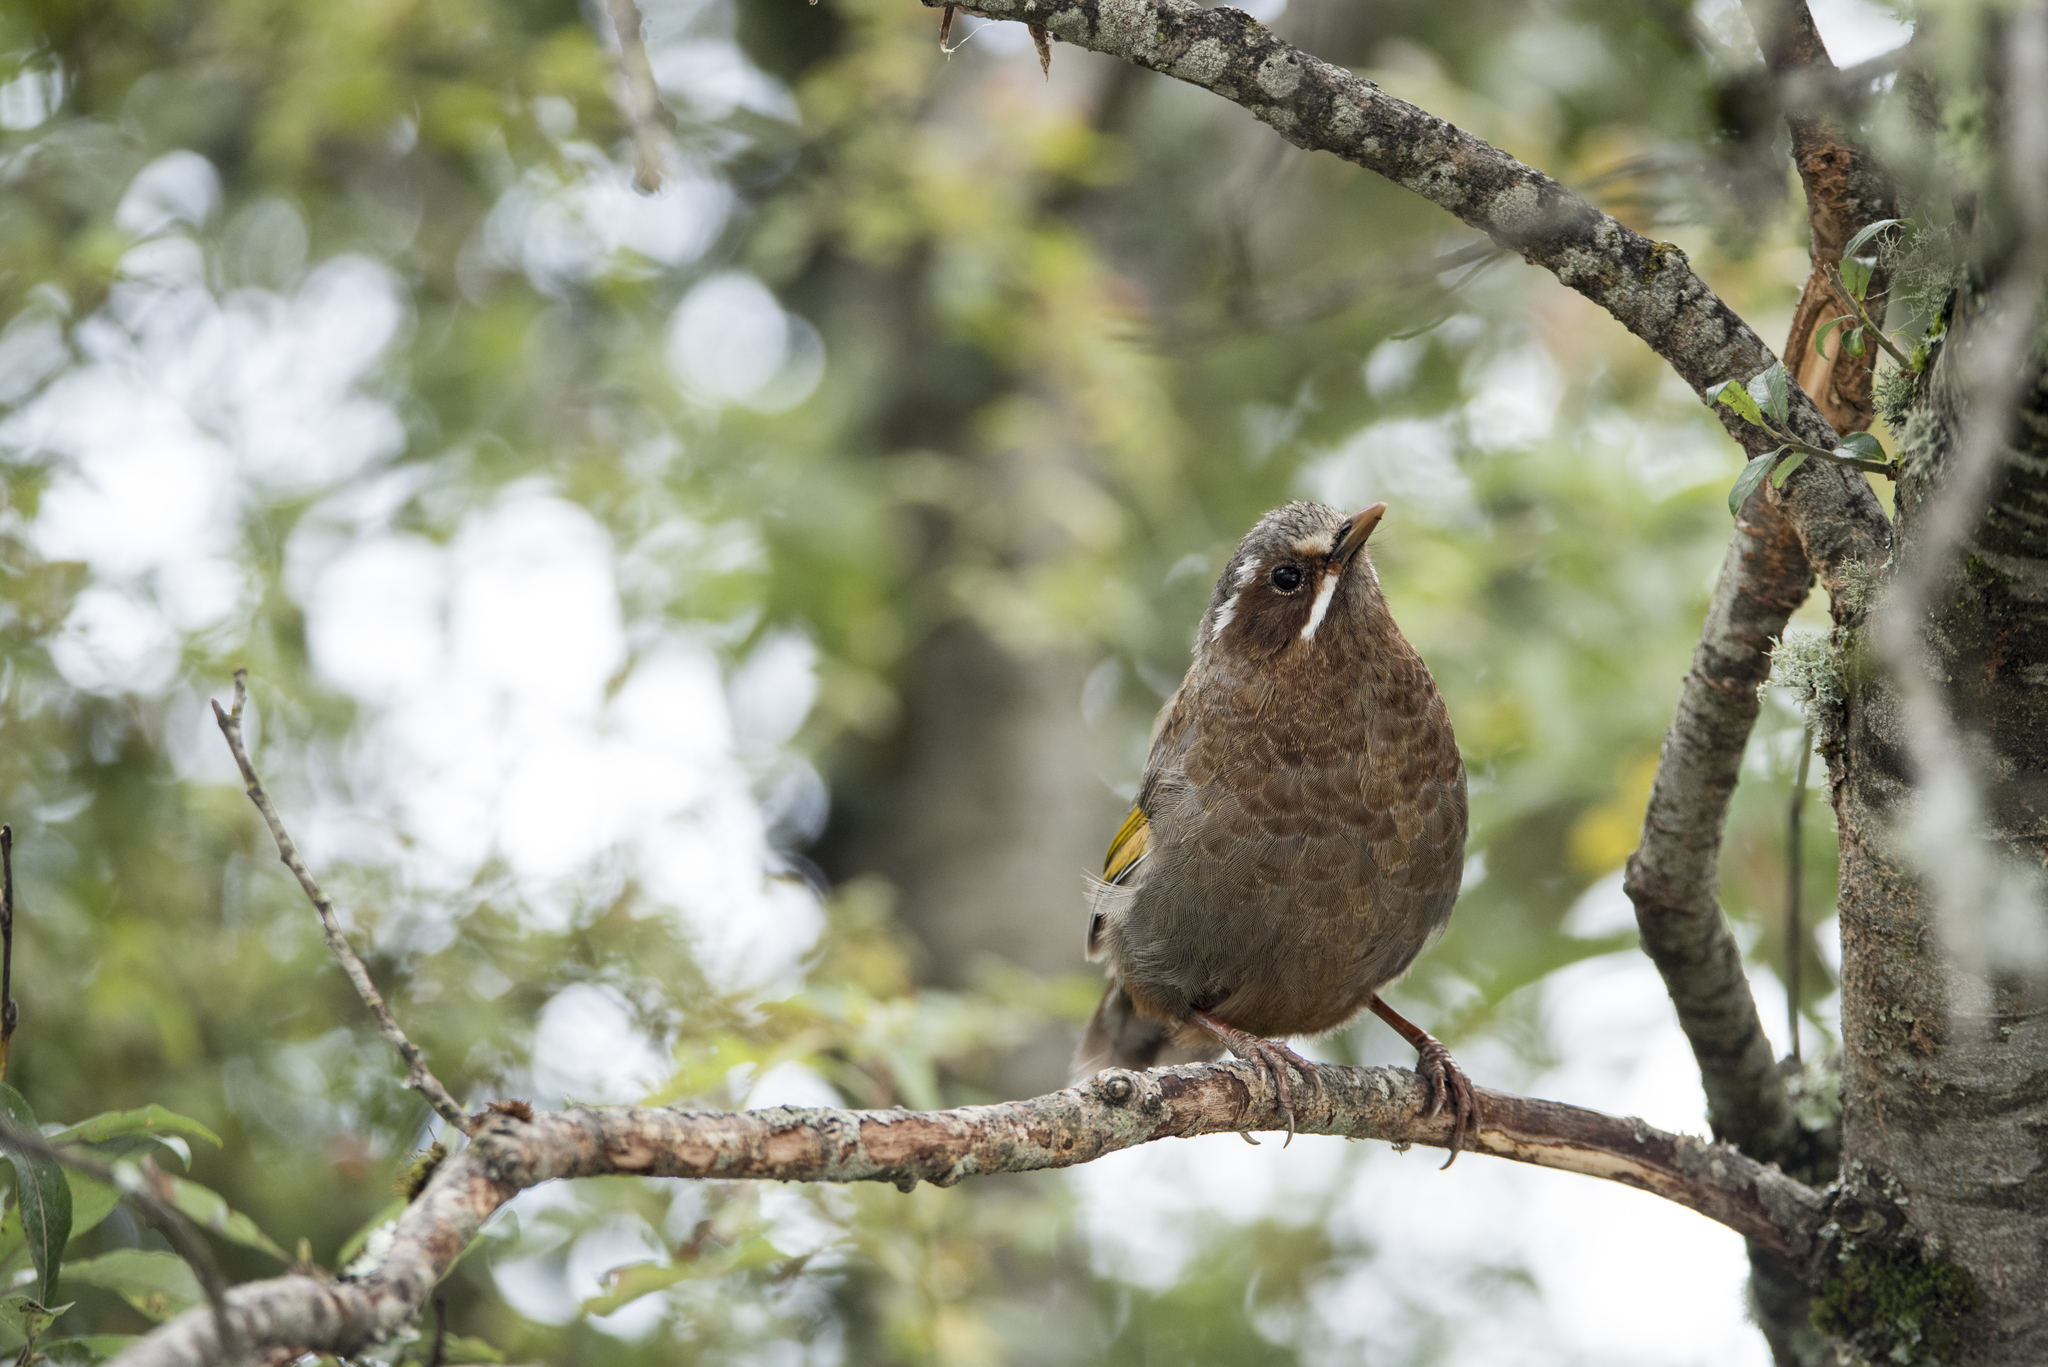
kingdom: Animalia
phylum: Chordata
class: Aves
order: Passeriformes
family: Leiothrichidae
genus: Trochalopteron
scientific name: Trochalopteron morrisonianum
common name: White-whiskered laughingthrush
